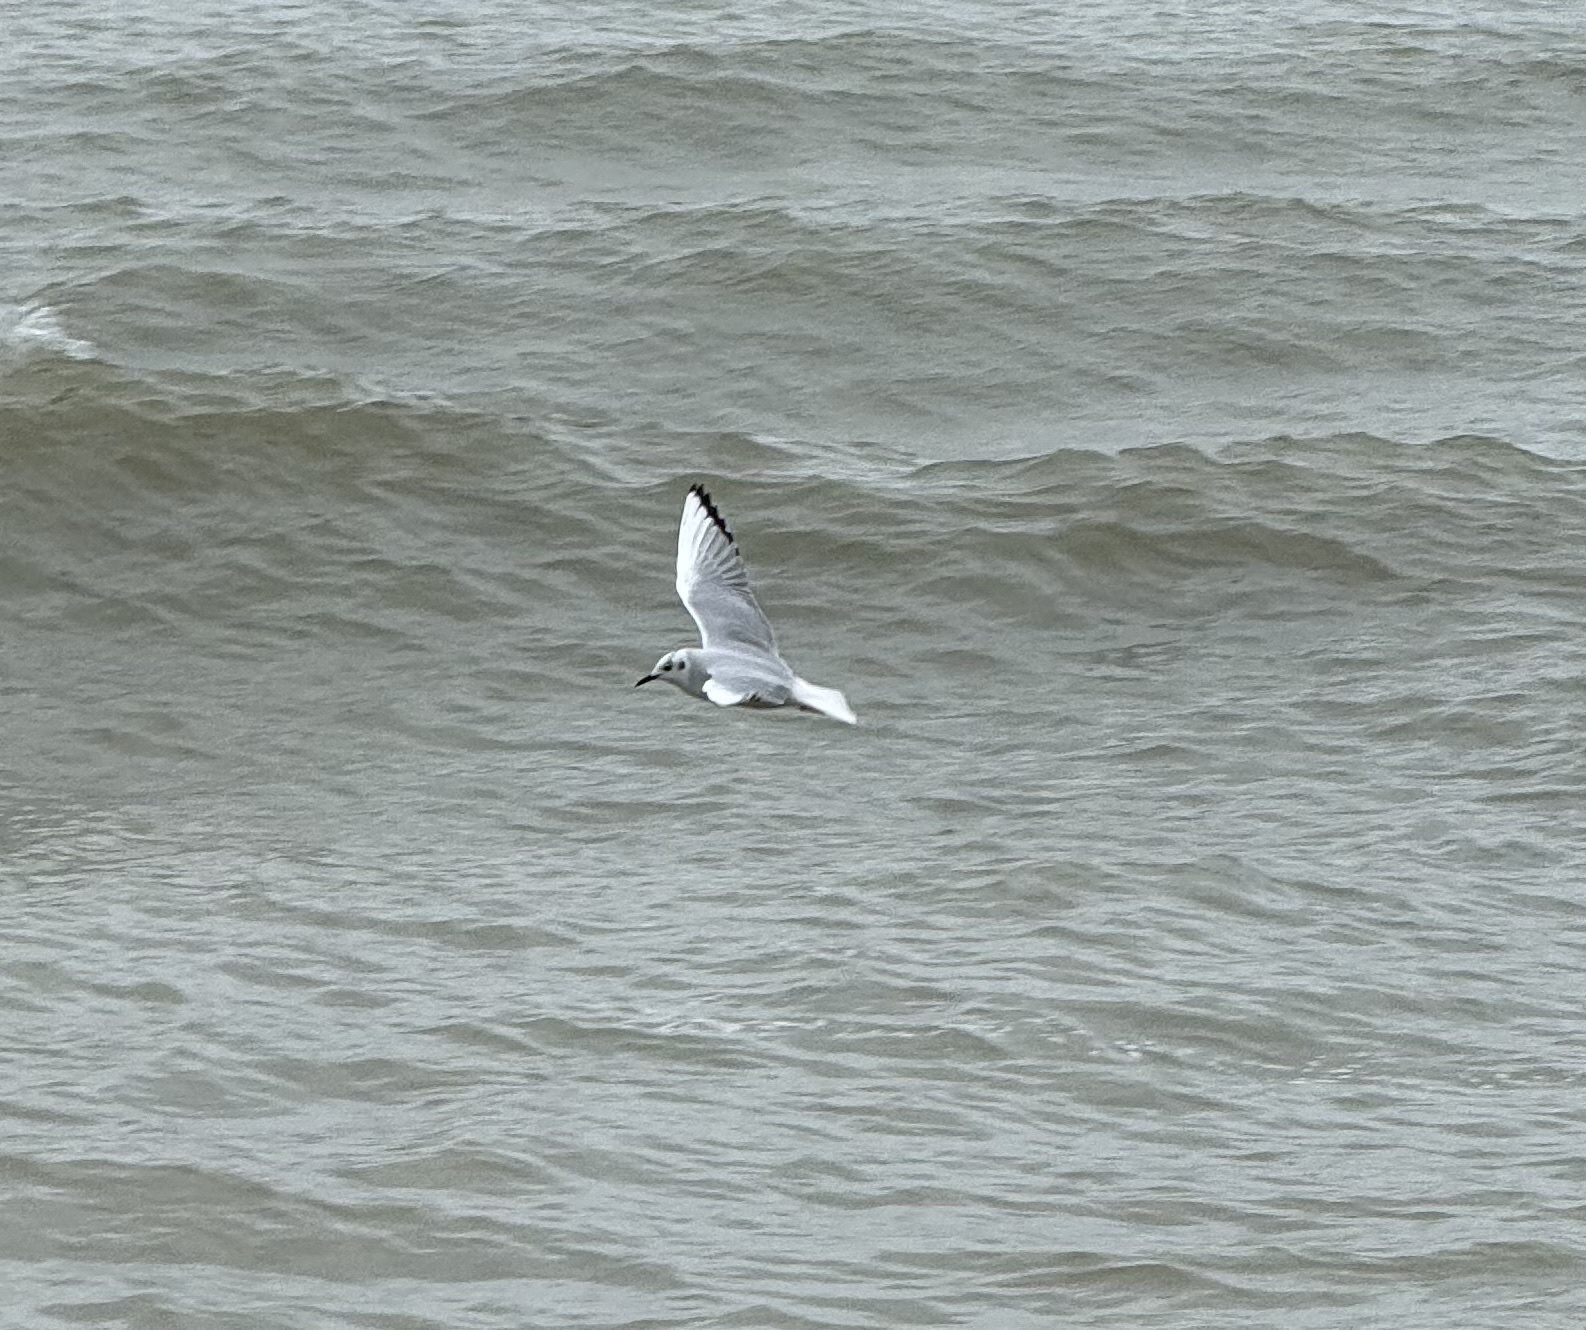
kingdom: Animalia
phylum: Chordata
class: Aves
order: Charadriiformes
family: Laridae
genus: Chroicocephalus
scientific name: Chroicocephalus philadelphia
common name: Bonaparte's gull
